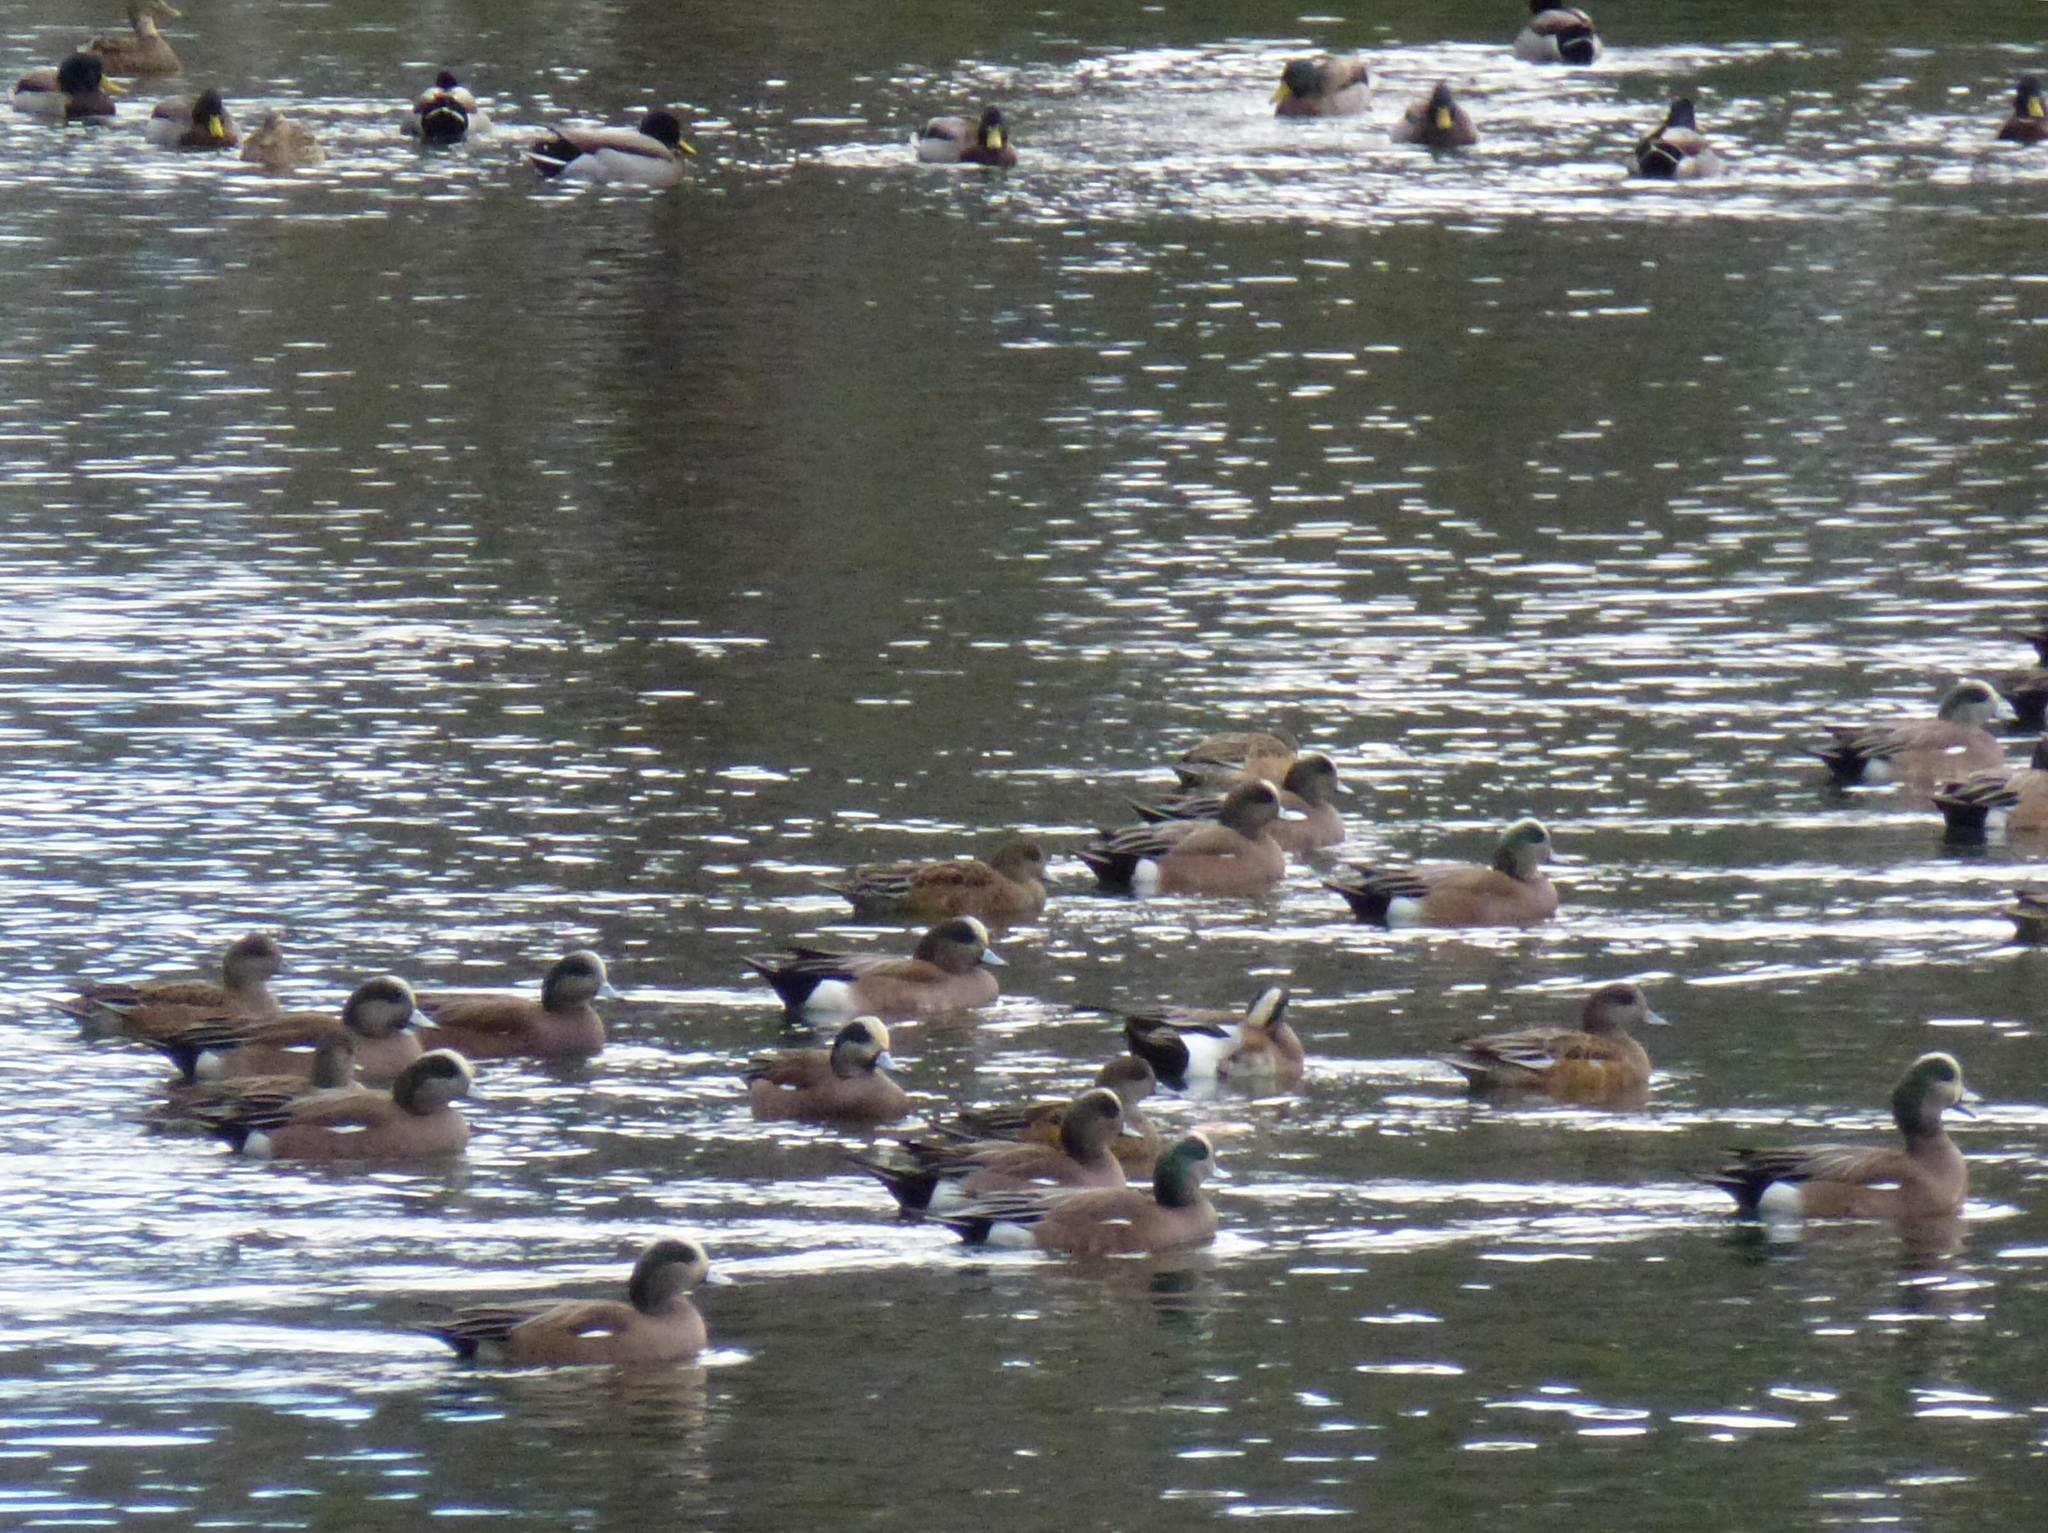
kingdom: Animalia
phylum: Chordata
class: Aves
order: Anseriformes
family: Anatidae
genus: Mareca
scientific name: Mareca americana
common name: American wigeon
